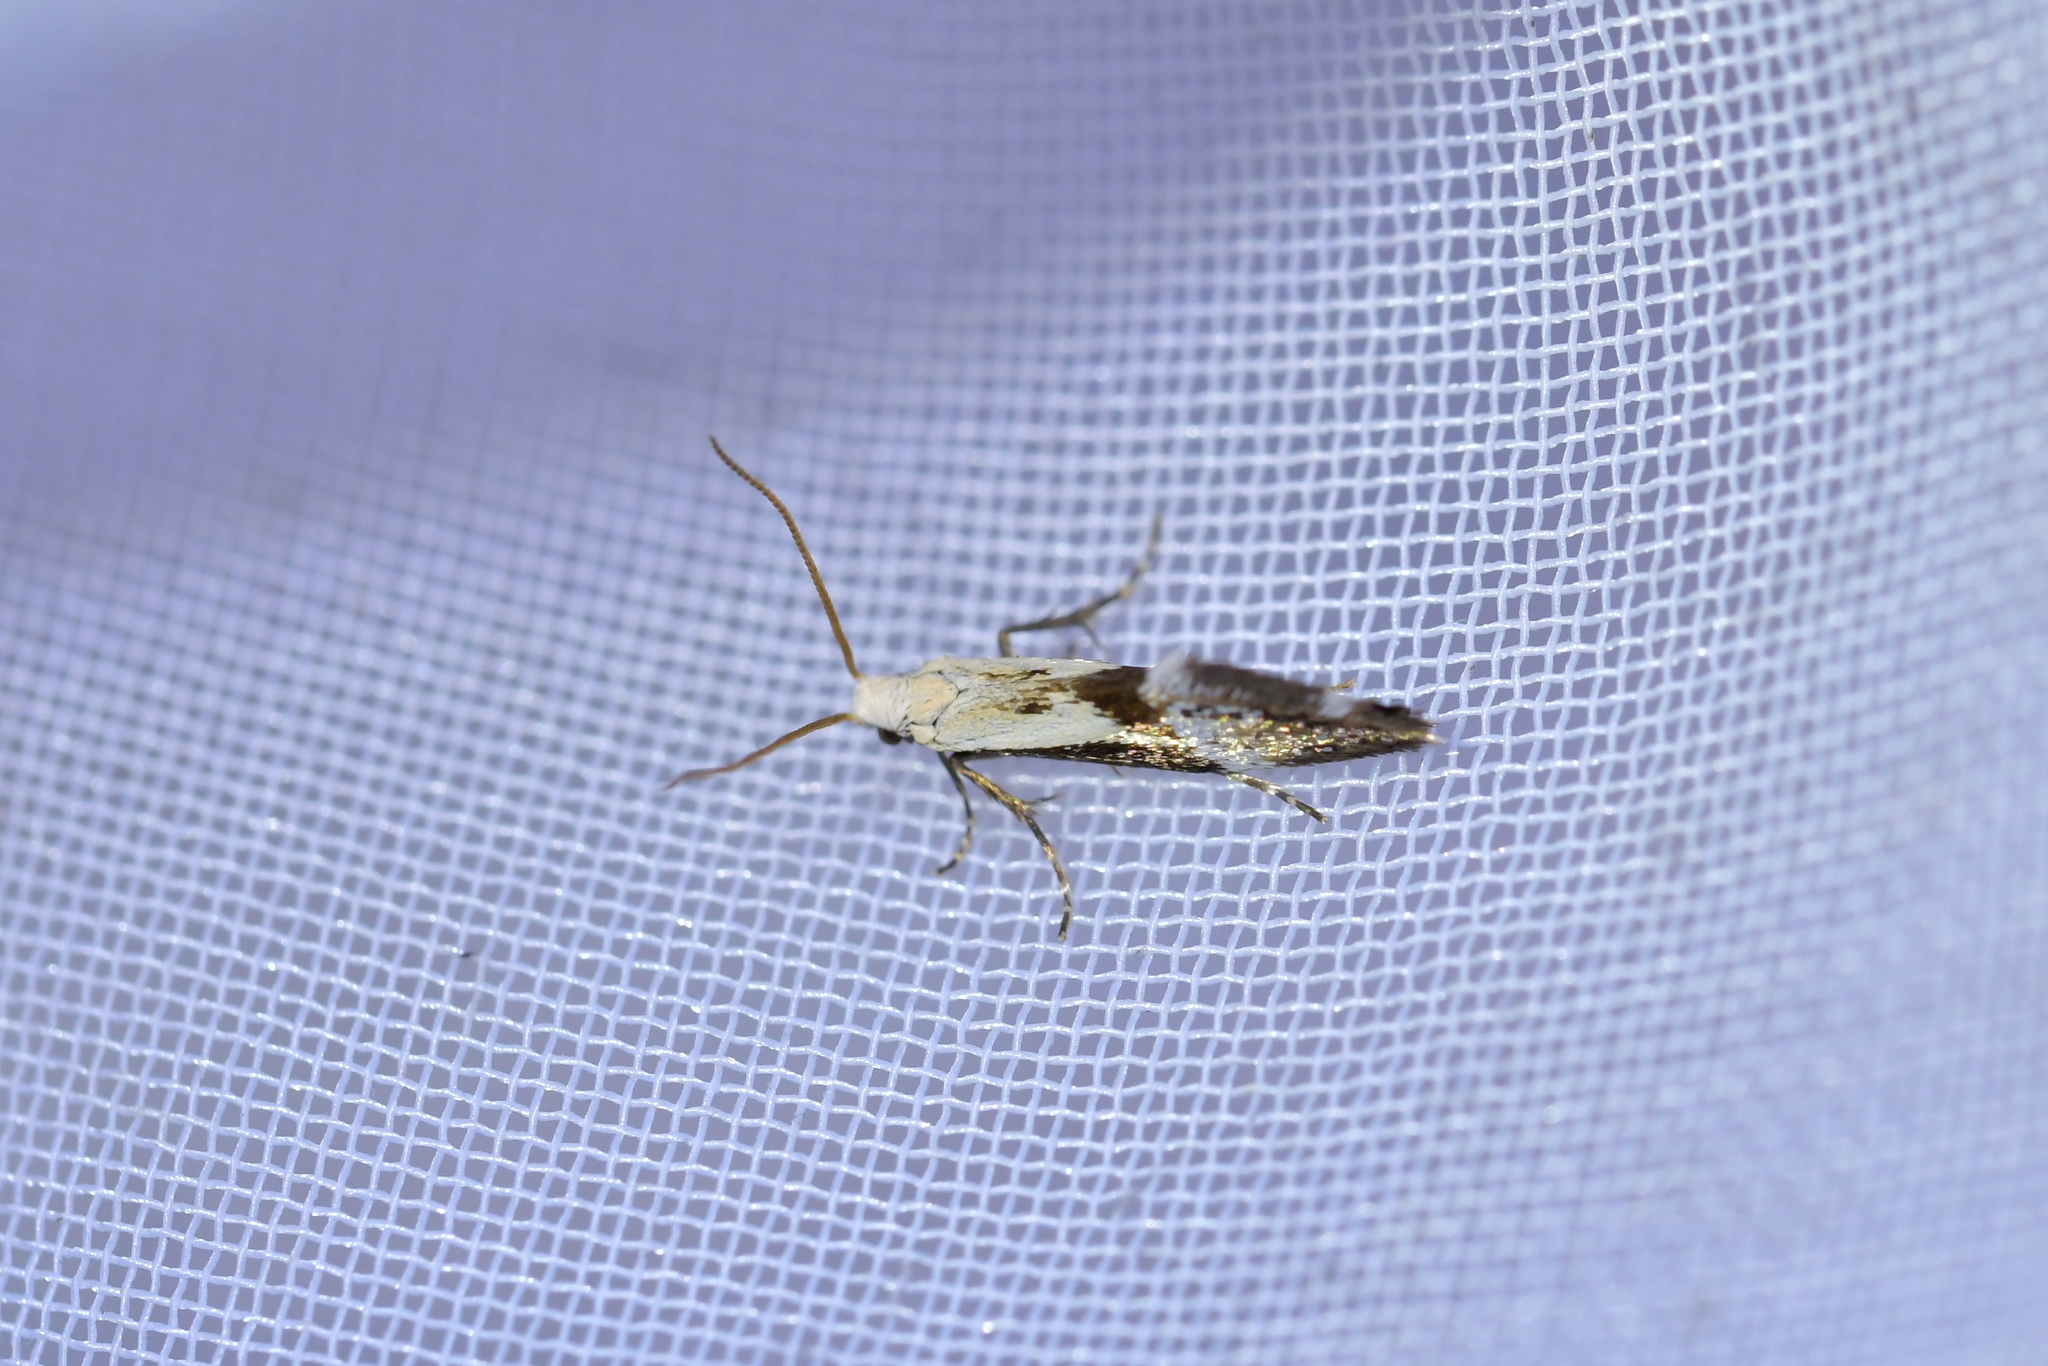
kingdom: Animalia
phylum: Arthropoda
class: Insecta
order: Lepidoptera
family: Mnesarchaeidae
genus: Mnesarchella
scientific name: Mnesarchella fusilella
